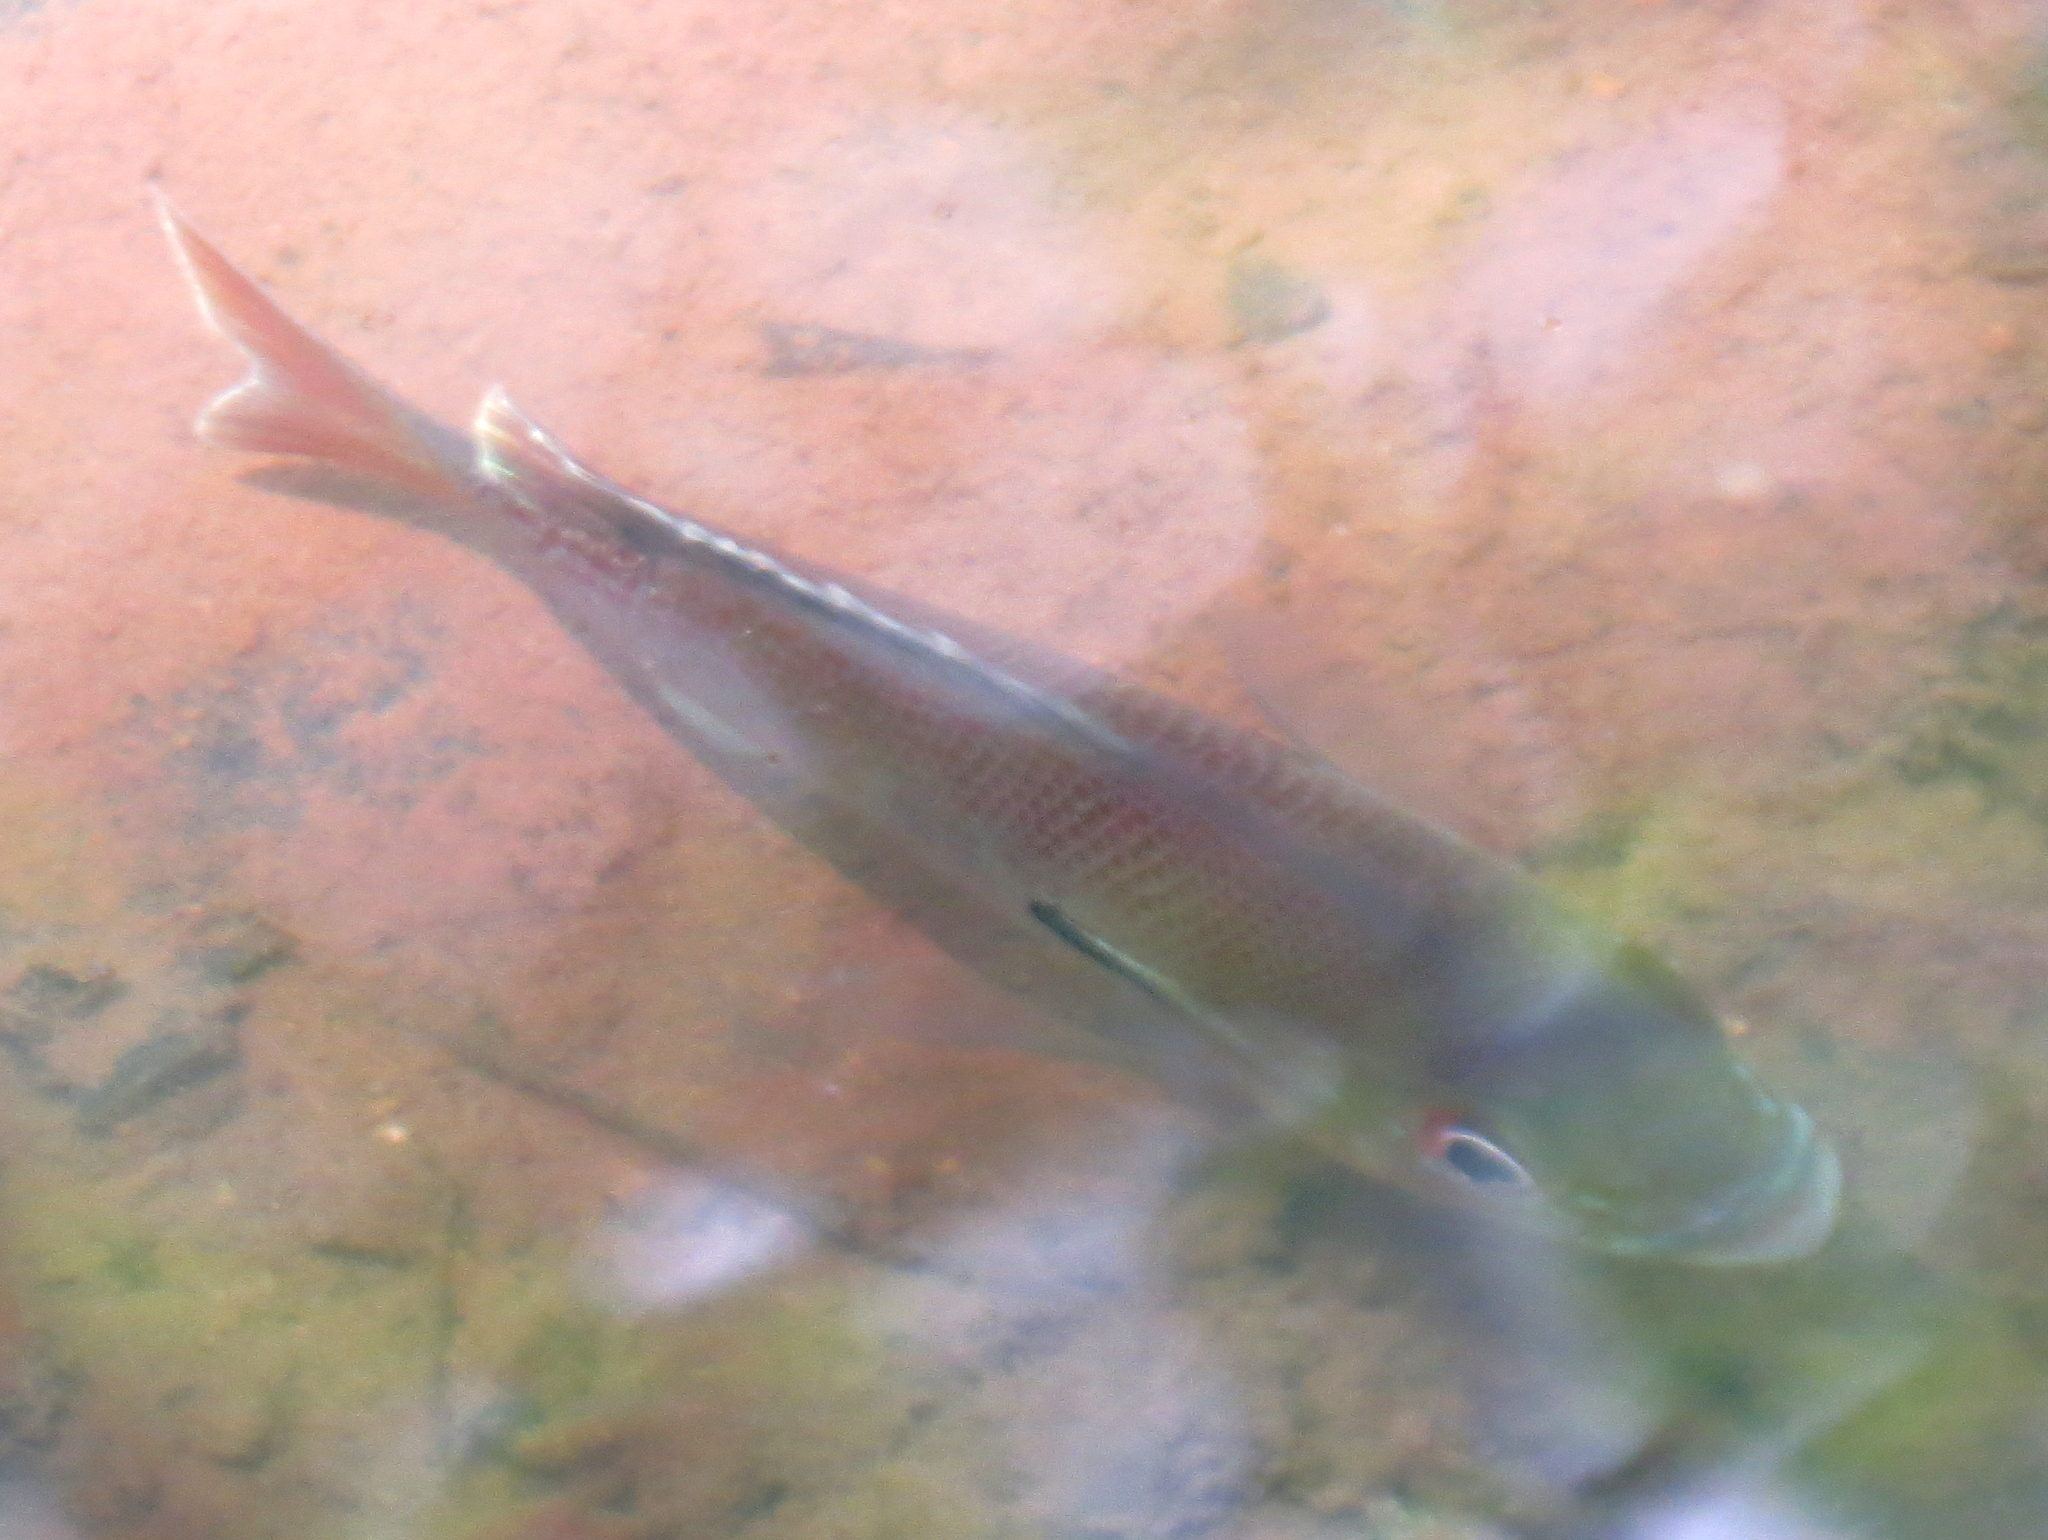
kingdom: Animalia
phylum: Chordata
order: Perciformes
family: Centrarchidae
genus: Lepomis
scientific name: Lepomis auritus
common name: Redbreast sunfish
